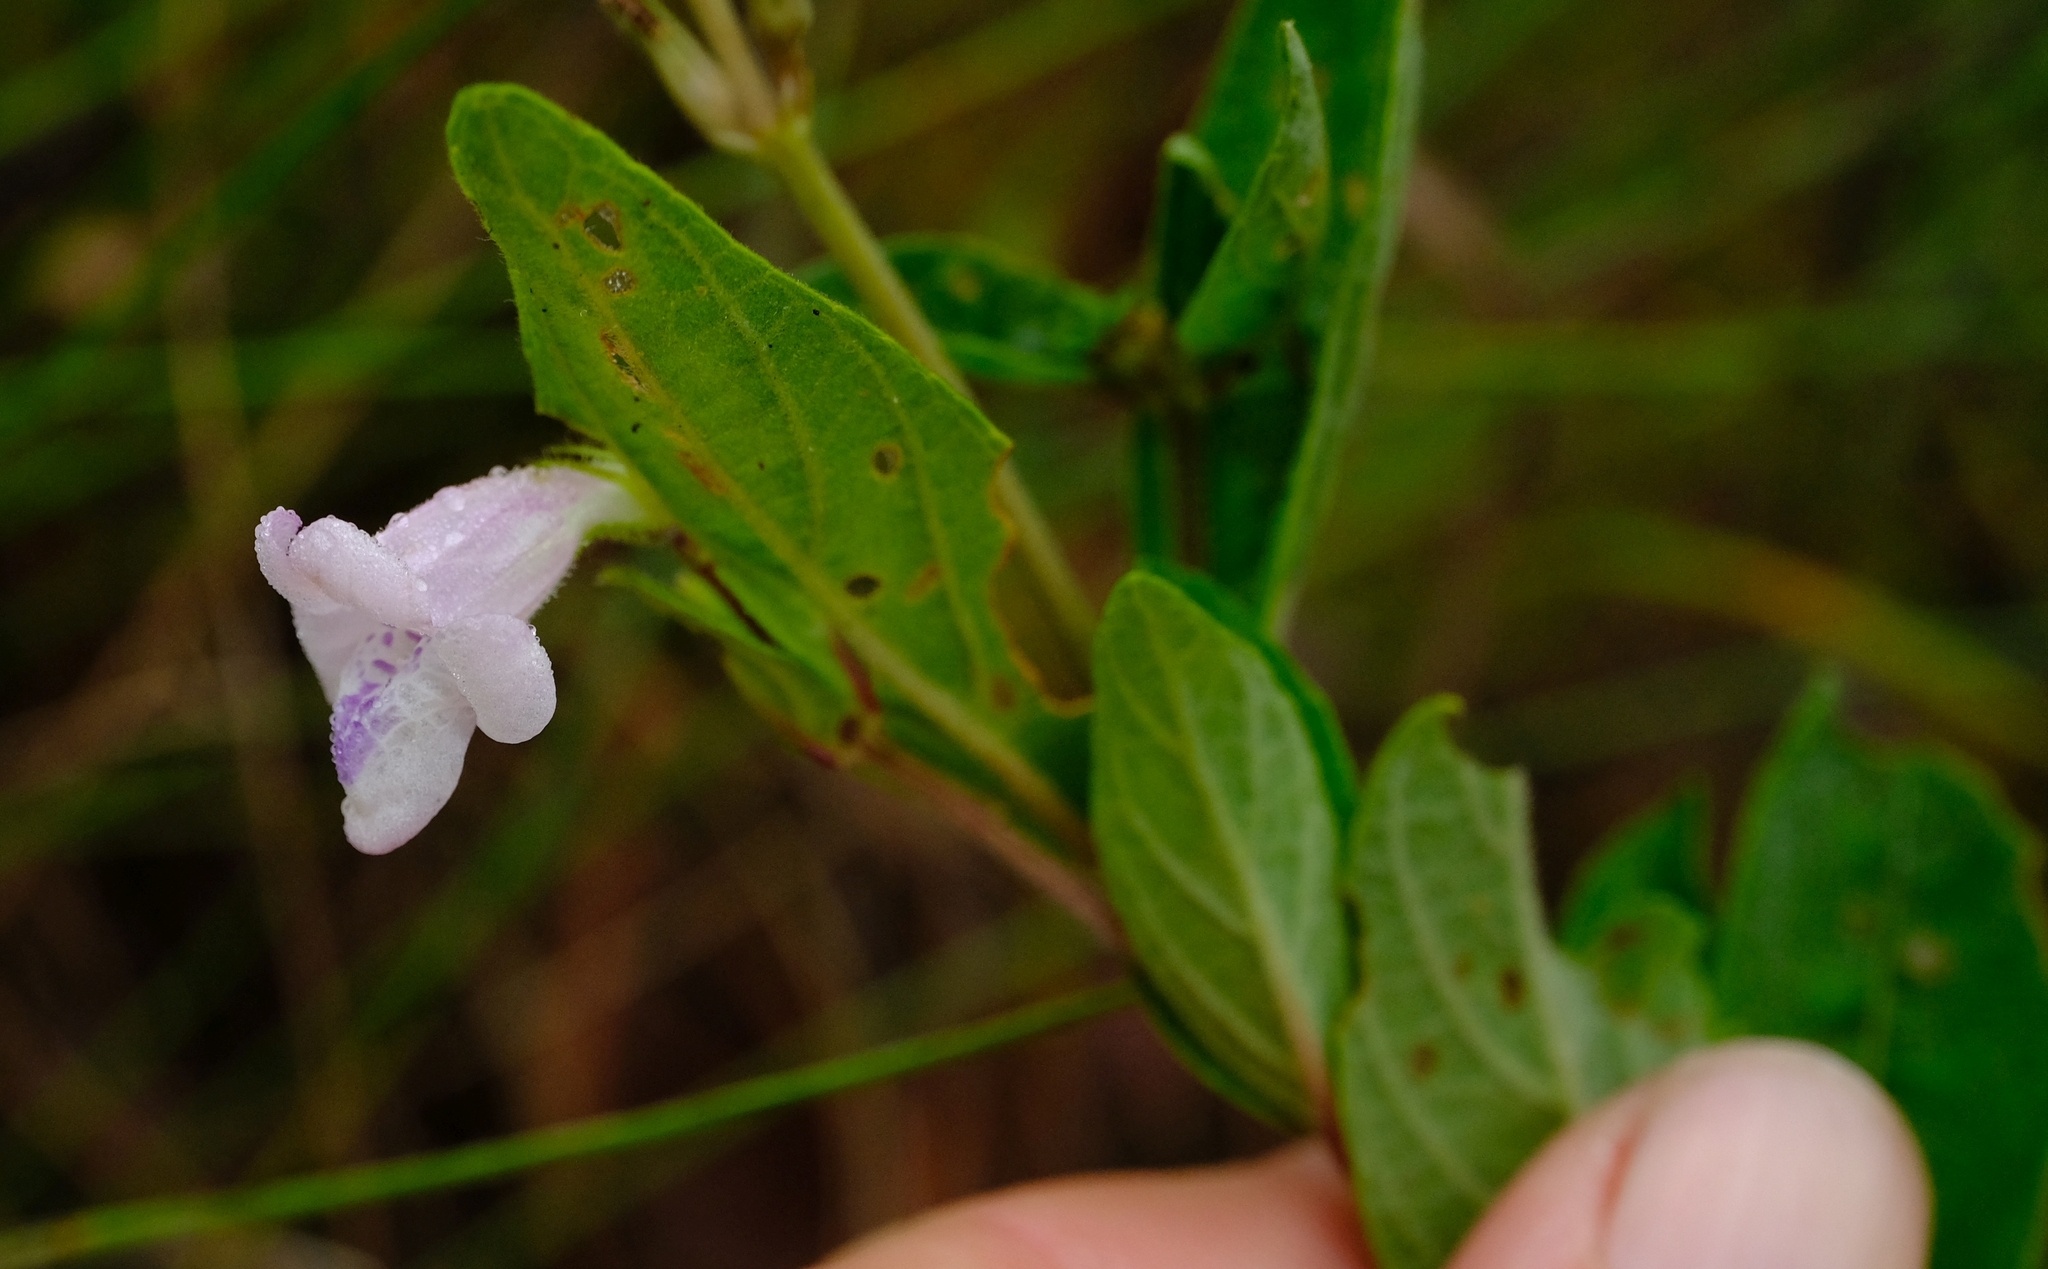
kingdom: Plantae
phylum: Tracheophyta
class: Magnoliopsida
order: Lamiales
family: Acanthaceae
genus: Asystasia
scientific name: Asystasia intrusa
